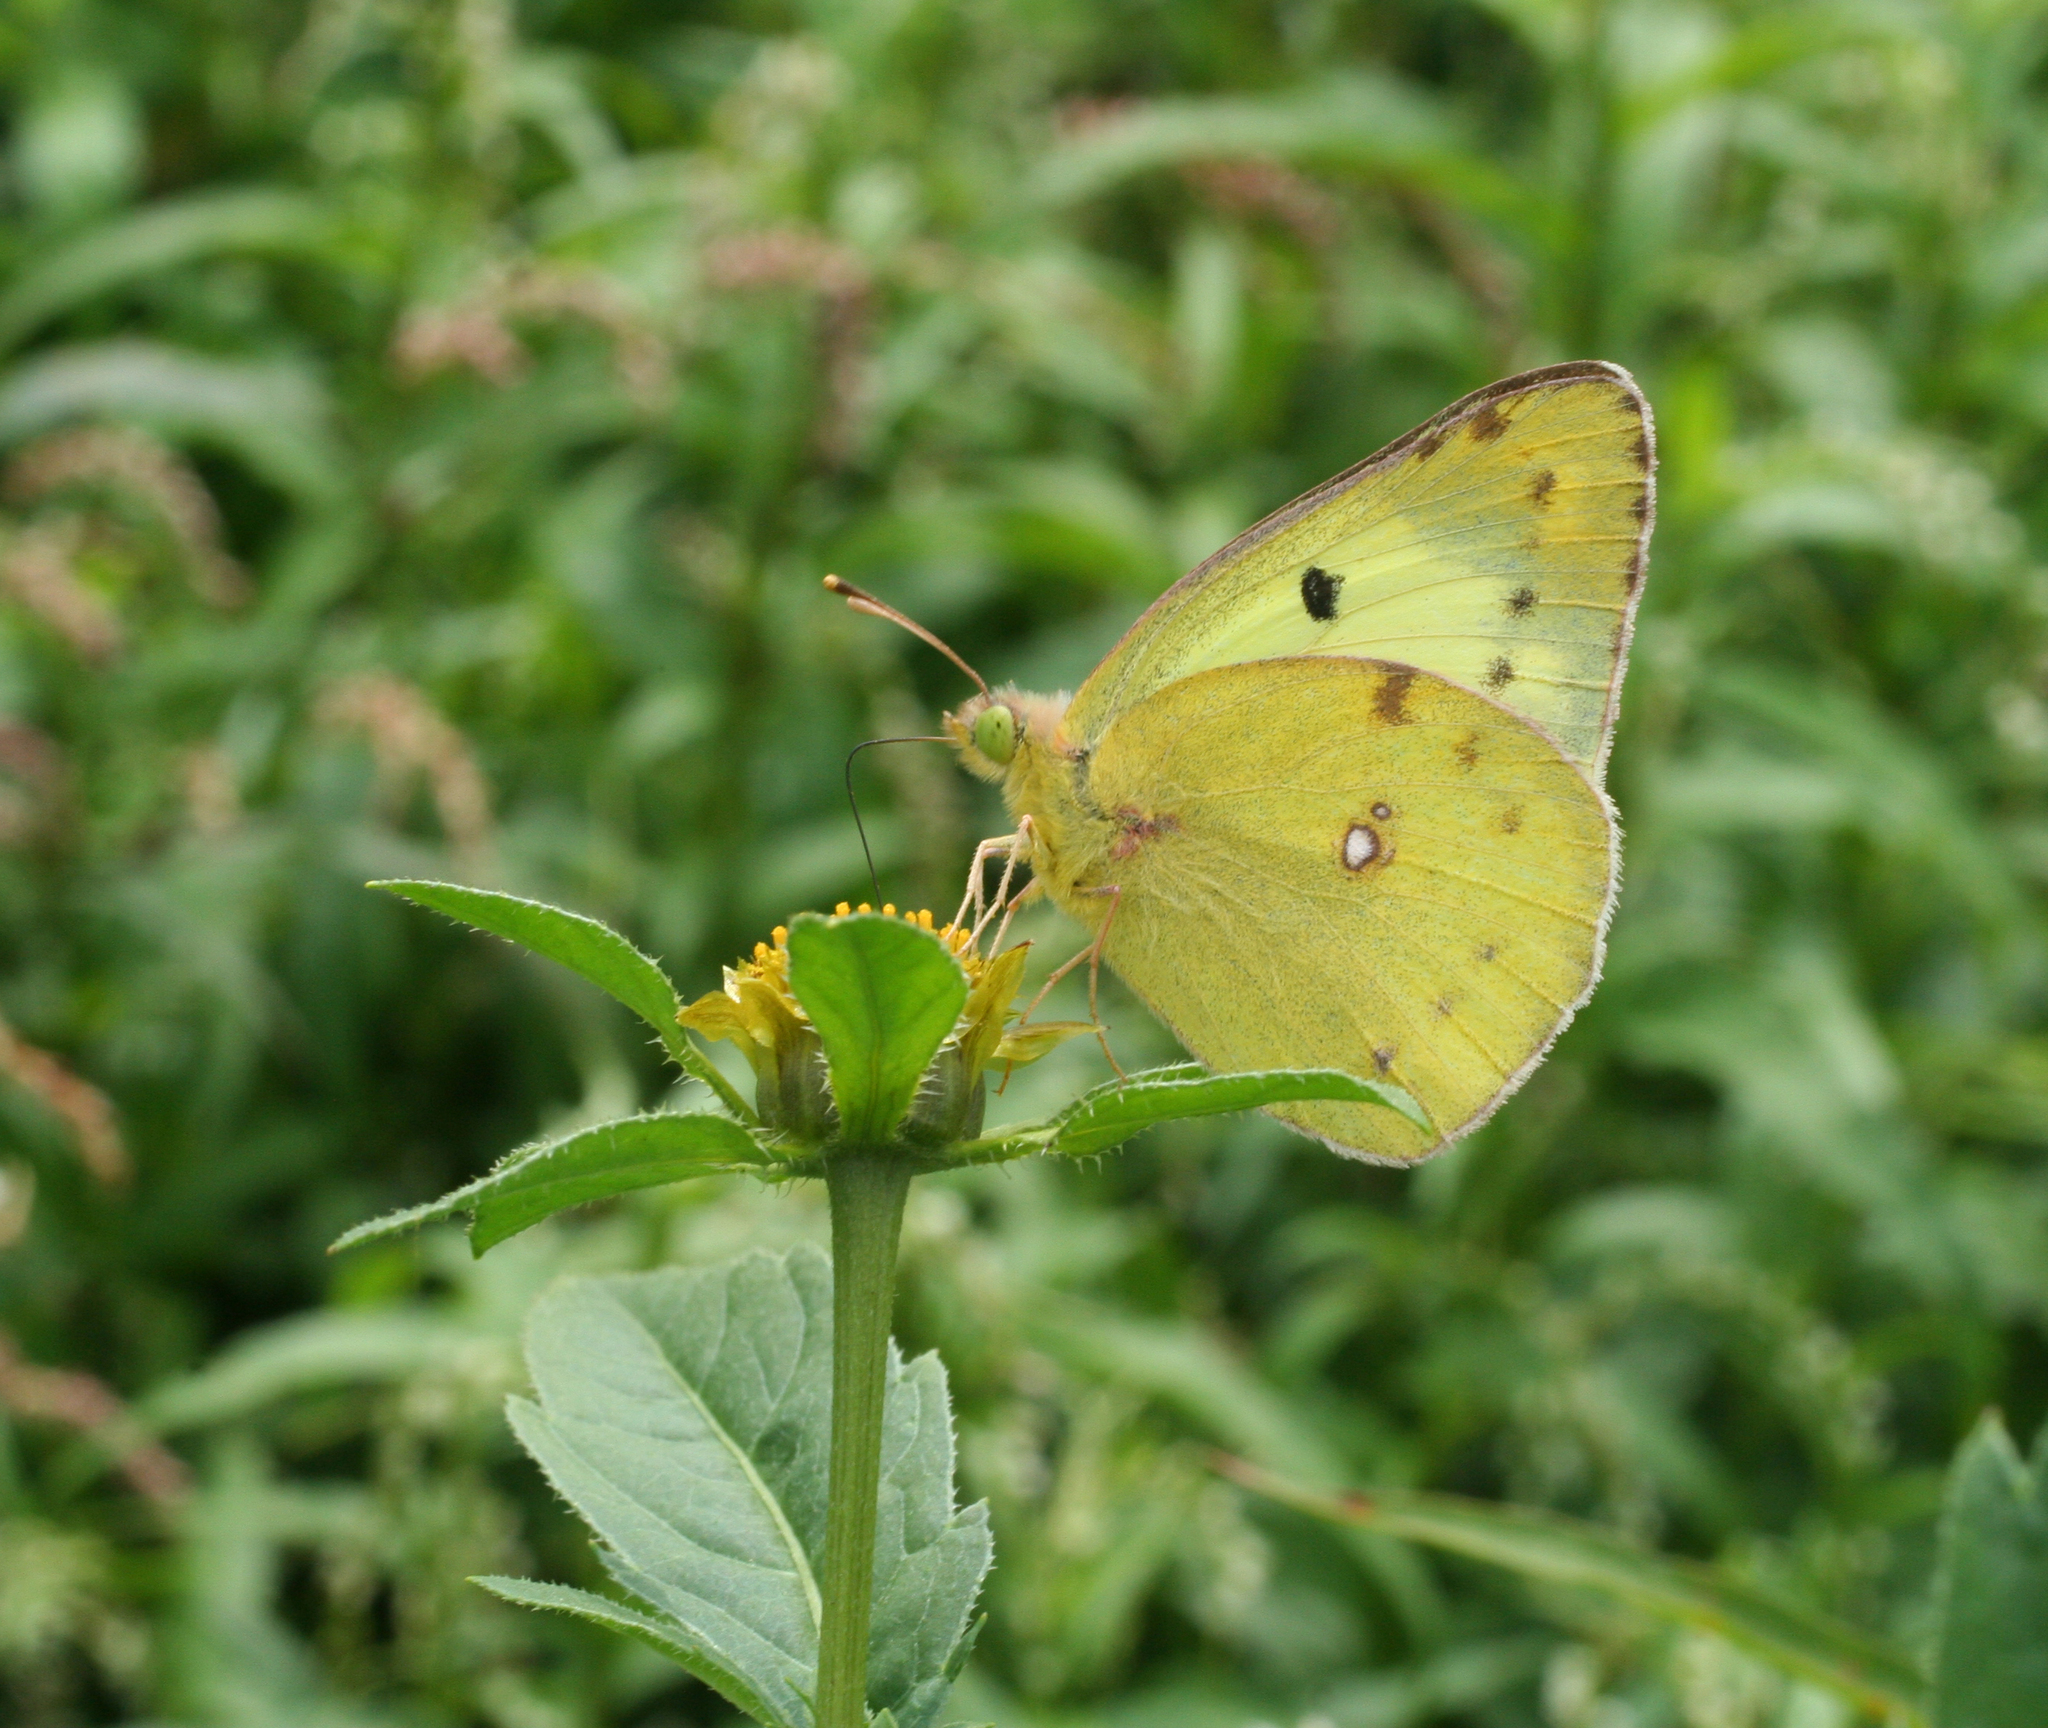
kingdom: Animalia
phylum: Arthropoda
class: Insecta
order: Lepidoptera
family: Pieridae
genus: Colias
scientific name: Colias hyale
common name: Pale clouded yellow
